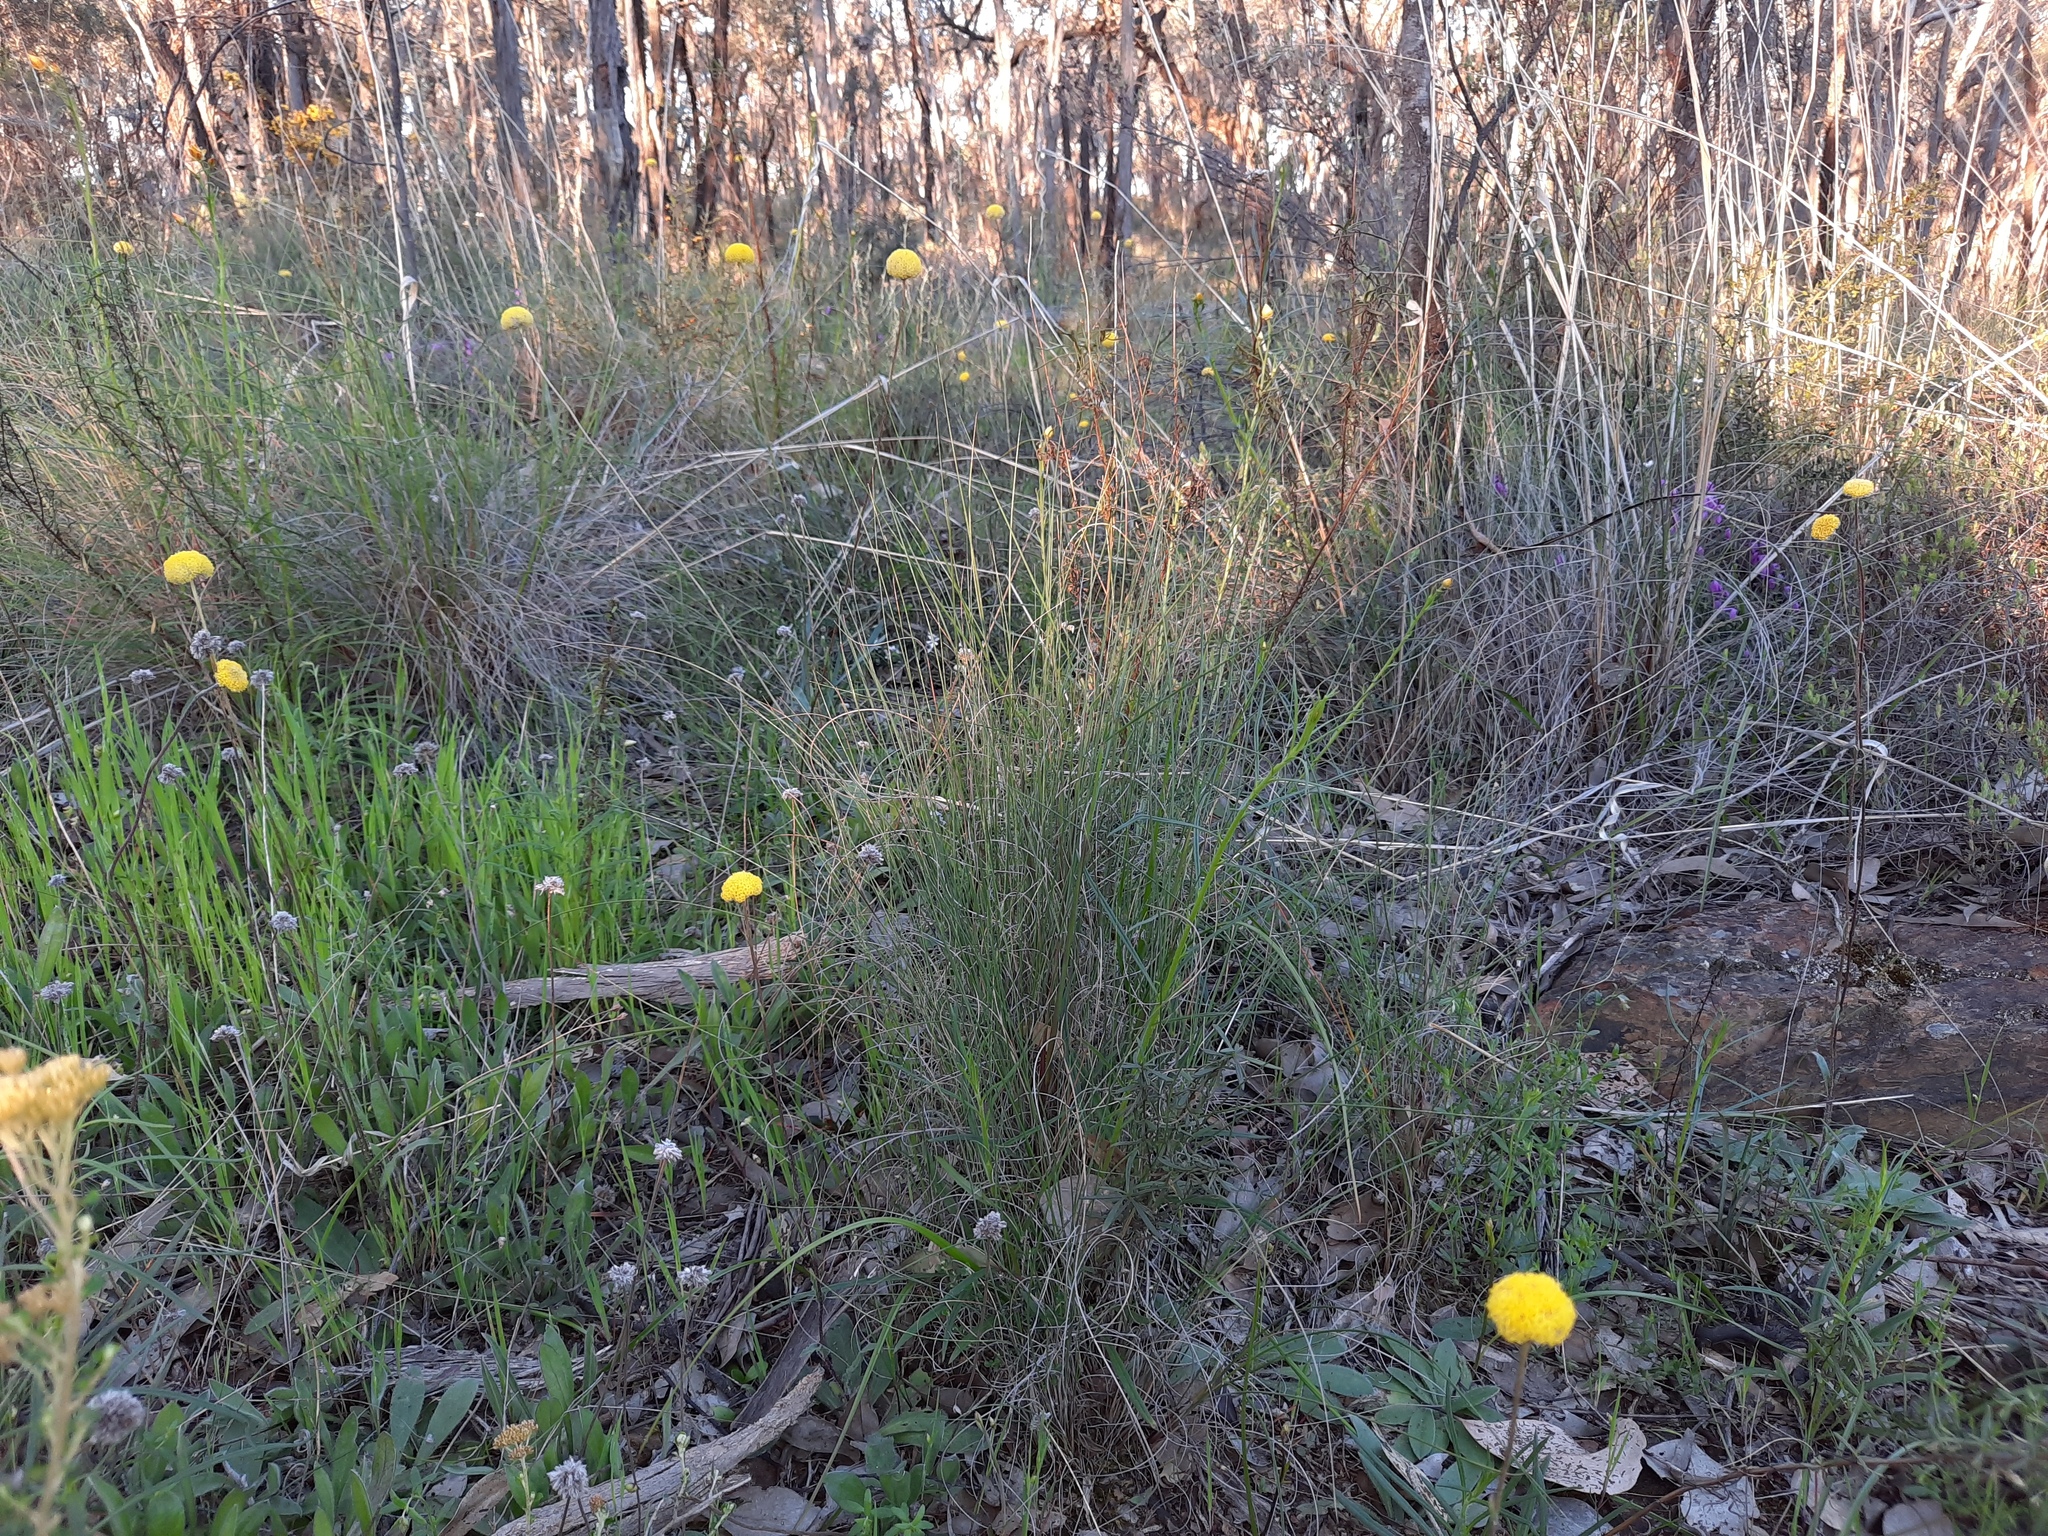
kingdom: Plantae
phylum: Tracheophyta
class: Magnoliopsida
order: Asterales
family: Asteraceae
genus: Craspedia
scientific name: Craspedia variabilis
